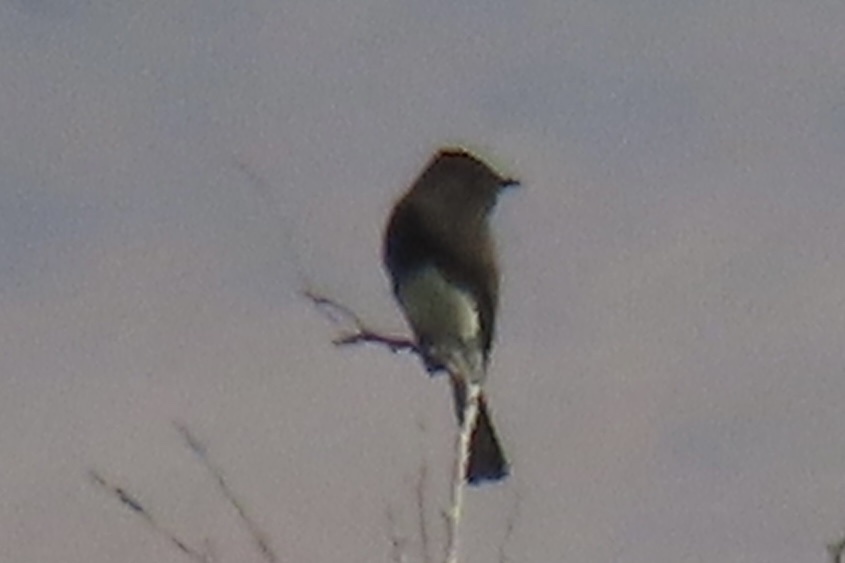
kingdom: Animalia
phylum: Chordata
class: Aves
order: Passeriformes
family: Tyrannidae
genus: Sayornis
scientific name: Sayornis nigricans
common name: Black phoebe
